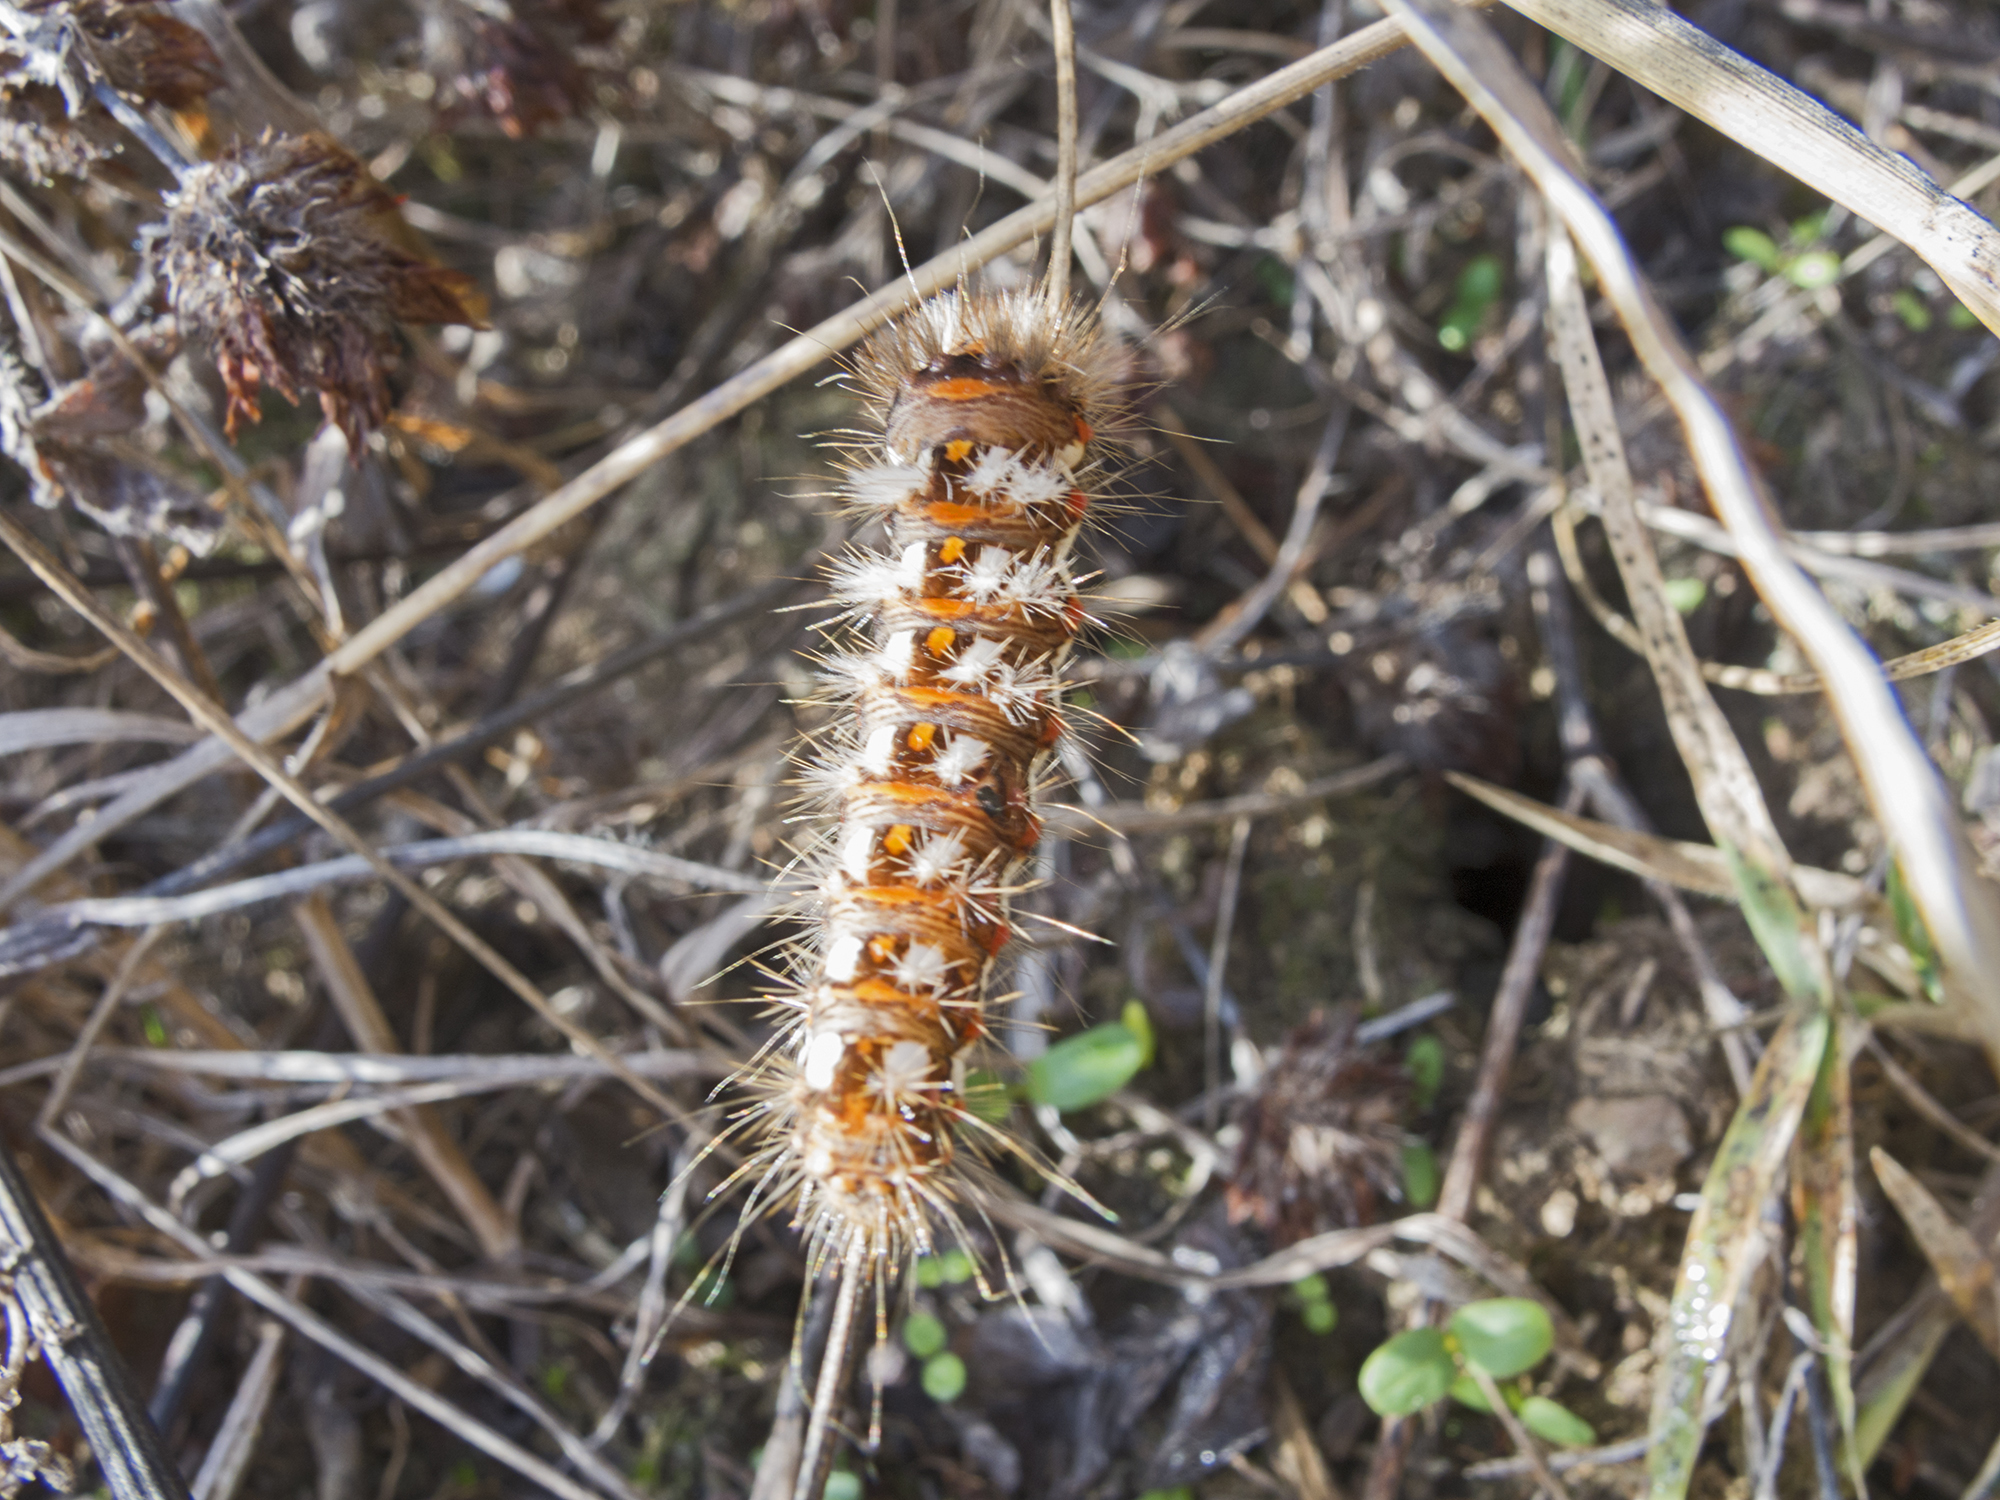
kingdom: Animalia
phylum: Arthropoda
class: Insecta
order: Lepidoptera
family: Noctuidae
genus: Acronicta
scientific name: Acronicta rumicis
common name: Knot grass
